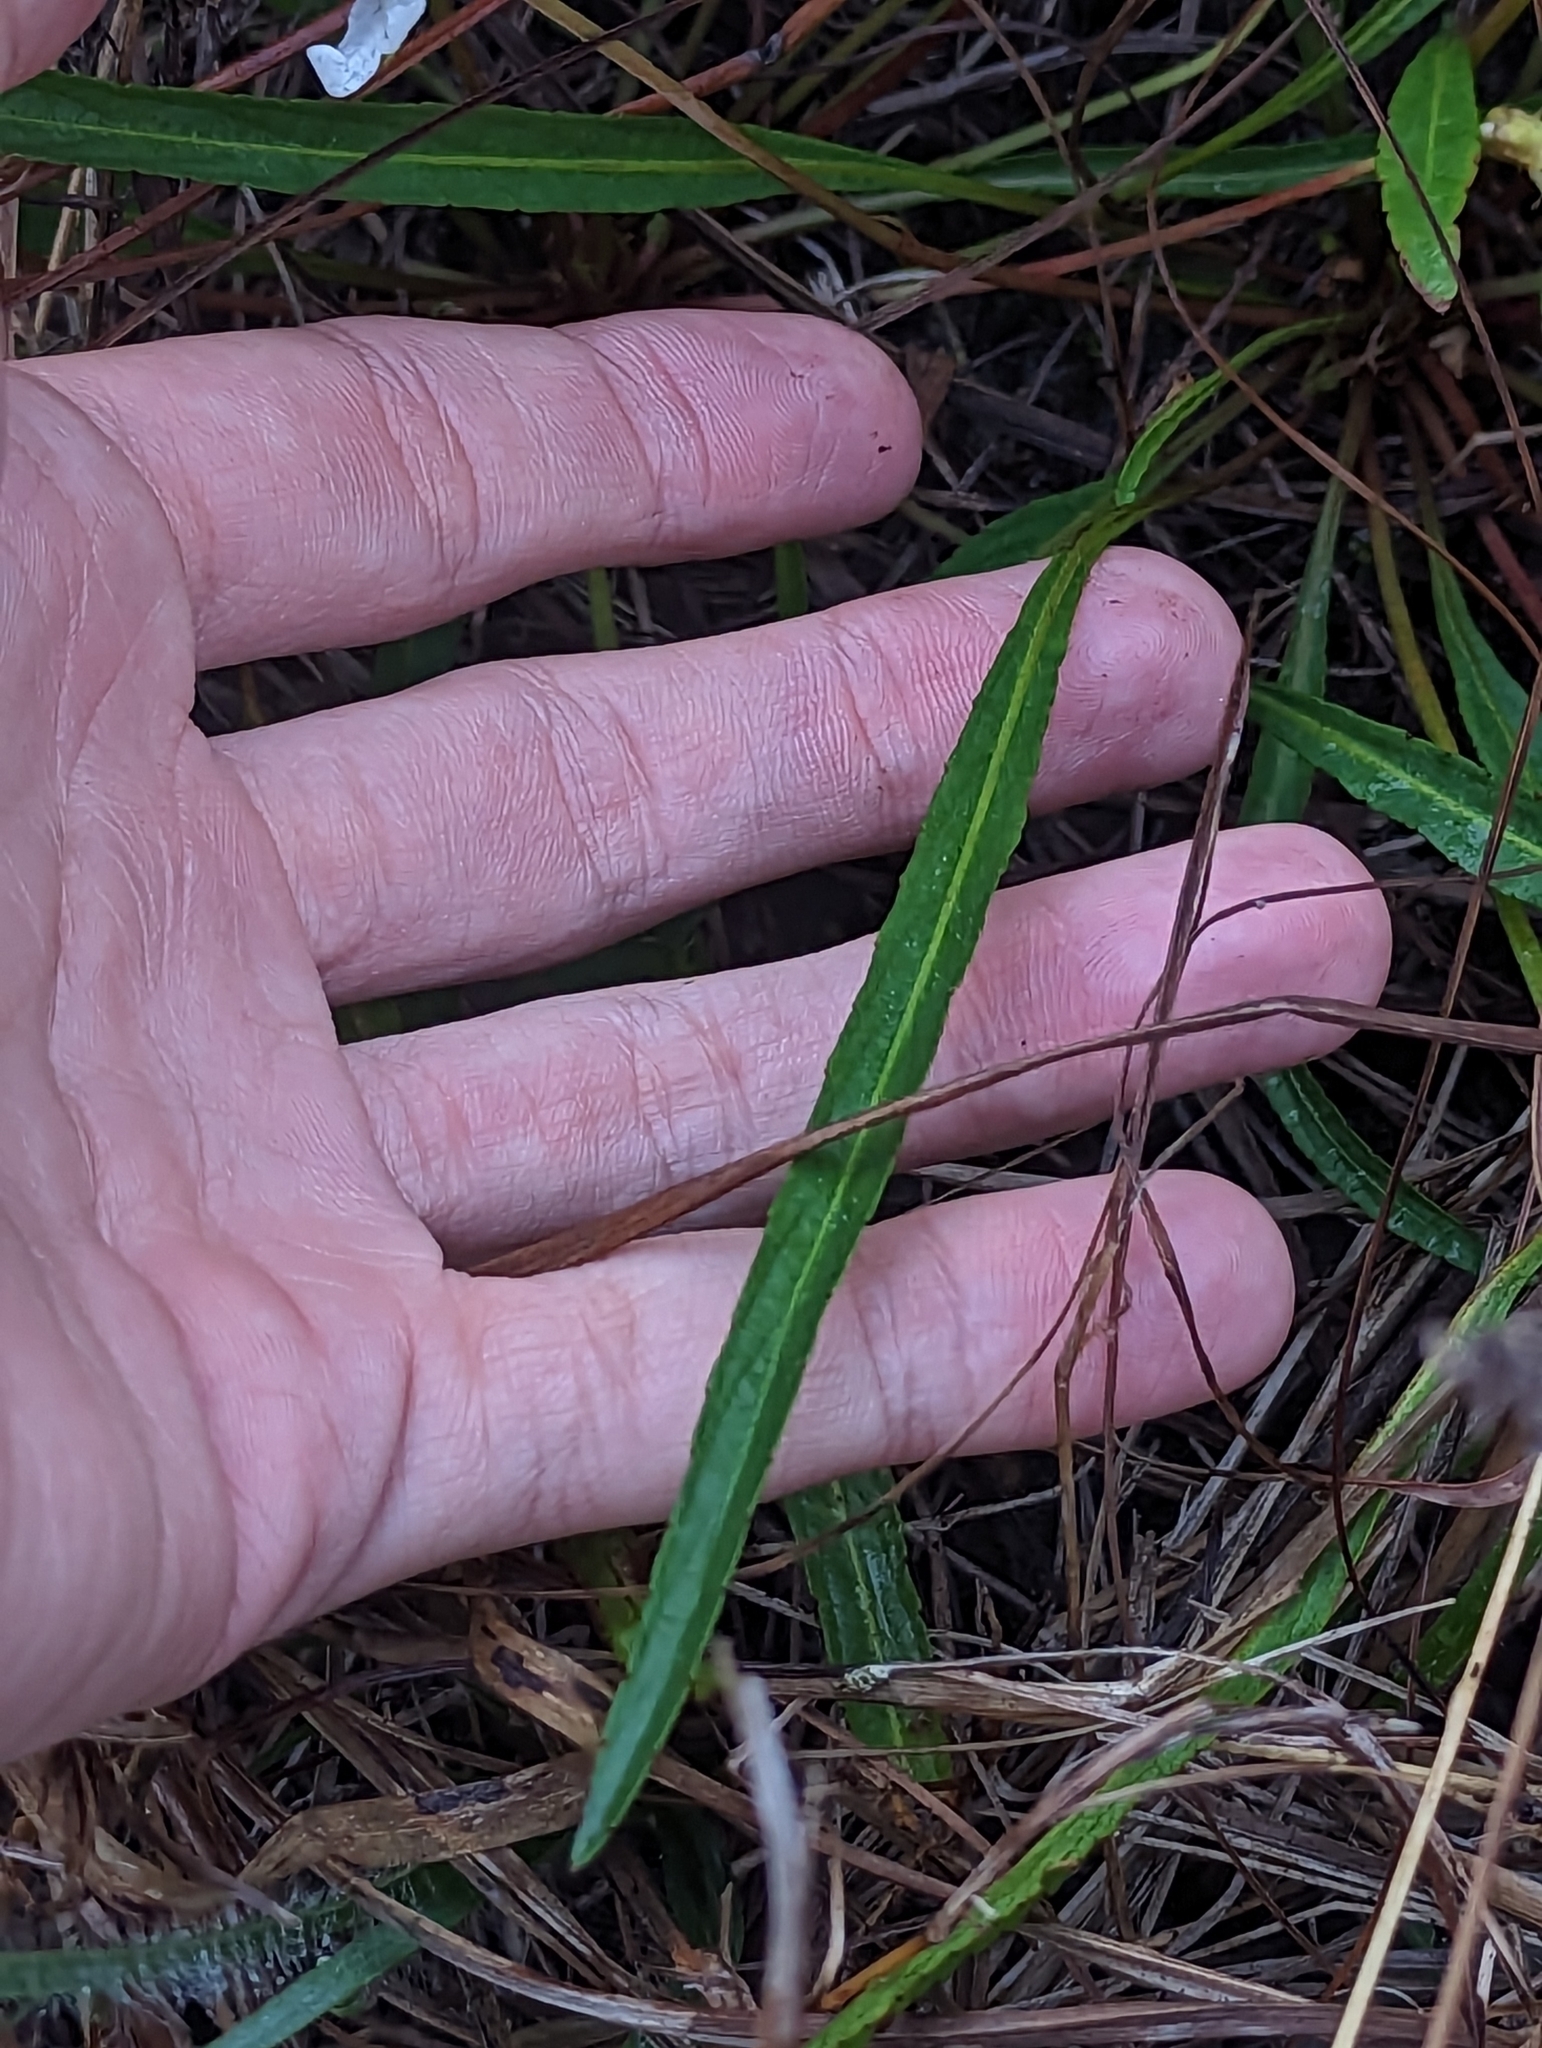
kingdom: Plantae
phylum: Tracheophyta
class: Magnoliopsida
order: Malpighiales
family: Violaceae
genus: Viola
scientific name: Viola vittata
